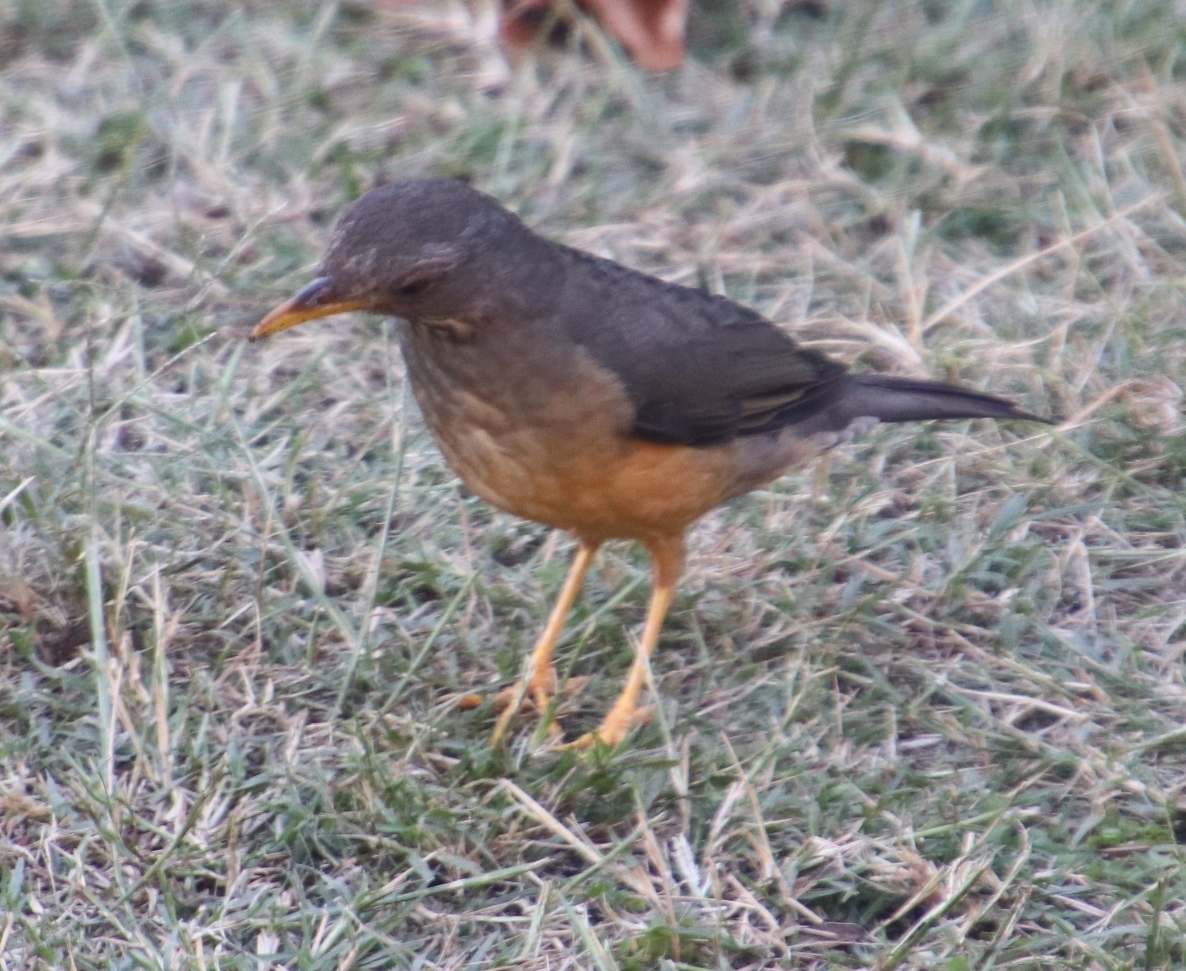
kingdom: Animalia
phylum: Chordata
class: Aves
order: Passeriformes
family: Turdidae
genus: Turdus
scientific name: Turdus olivaceus
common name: Olive thrush
